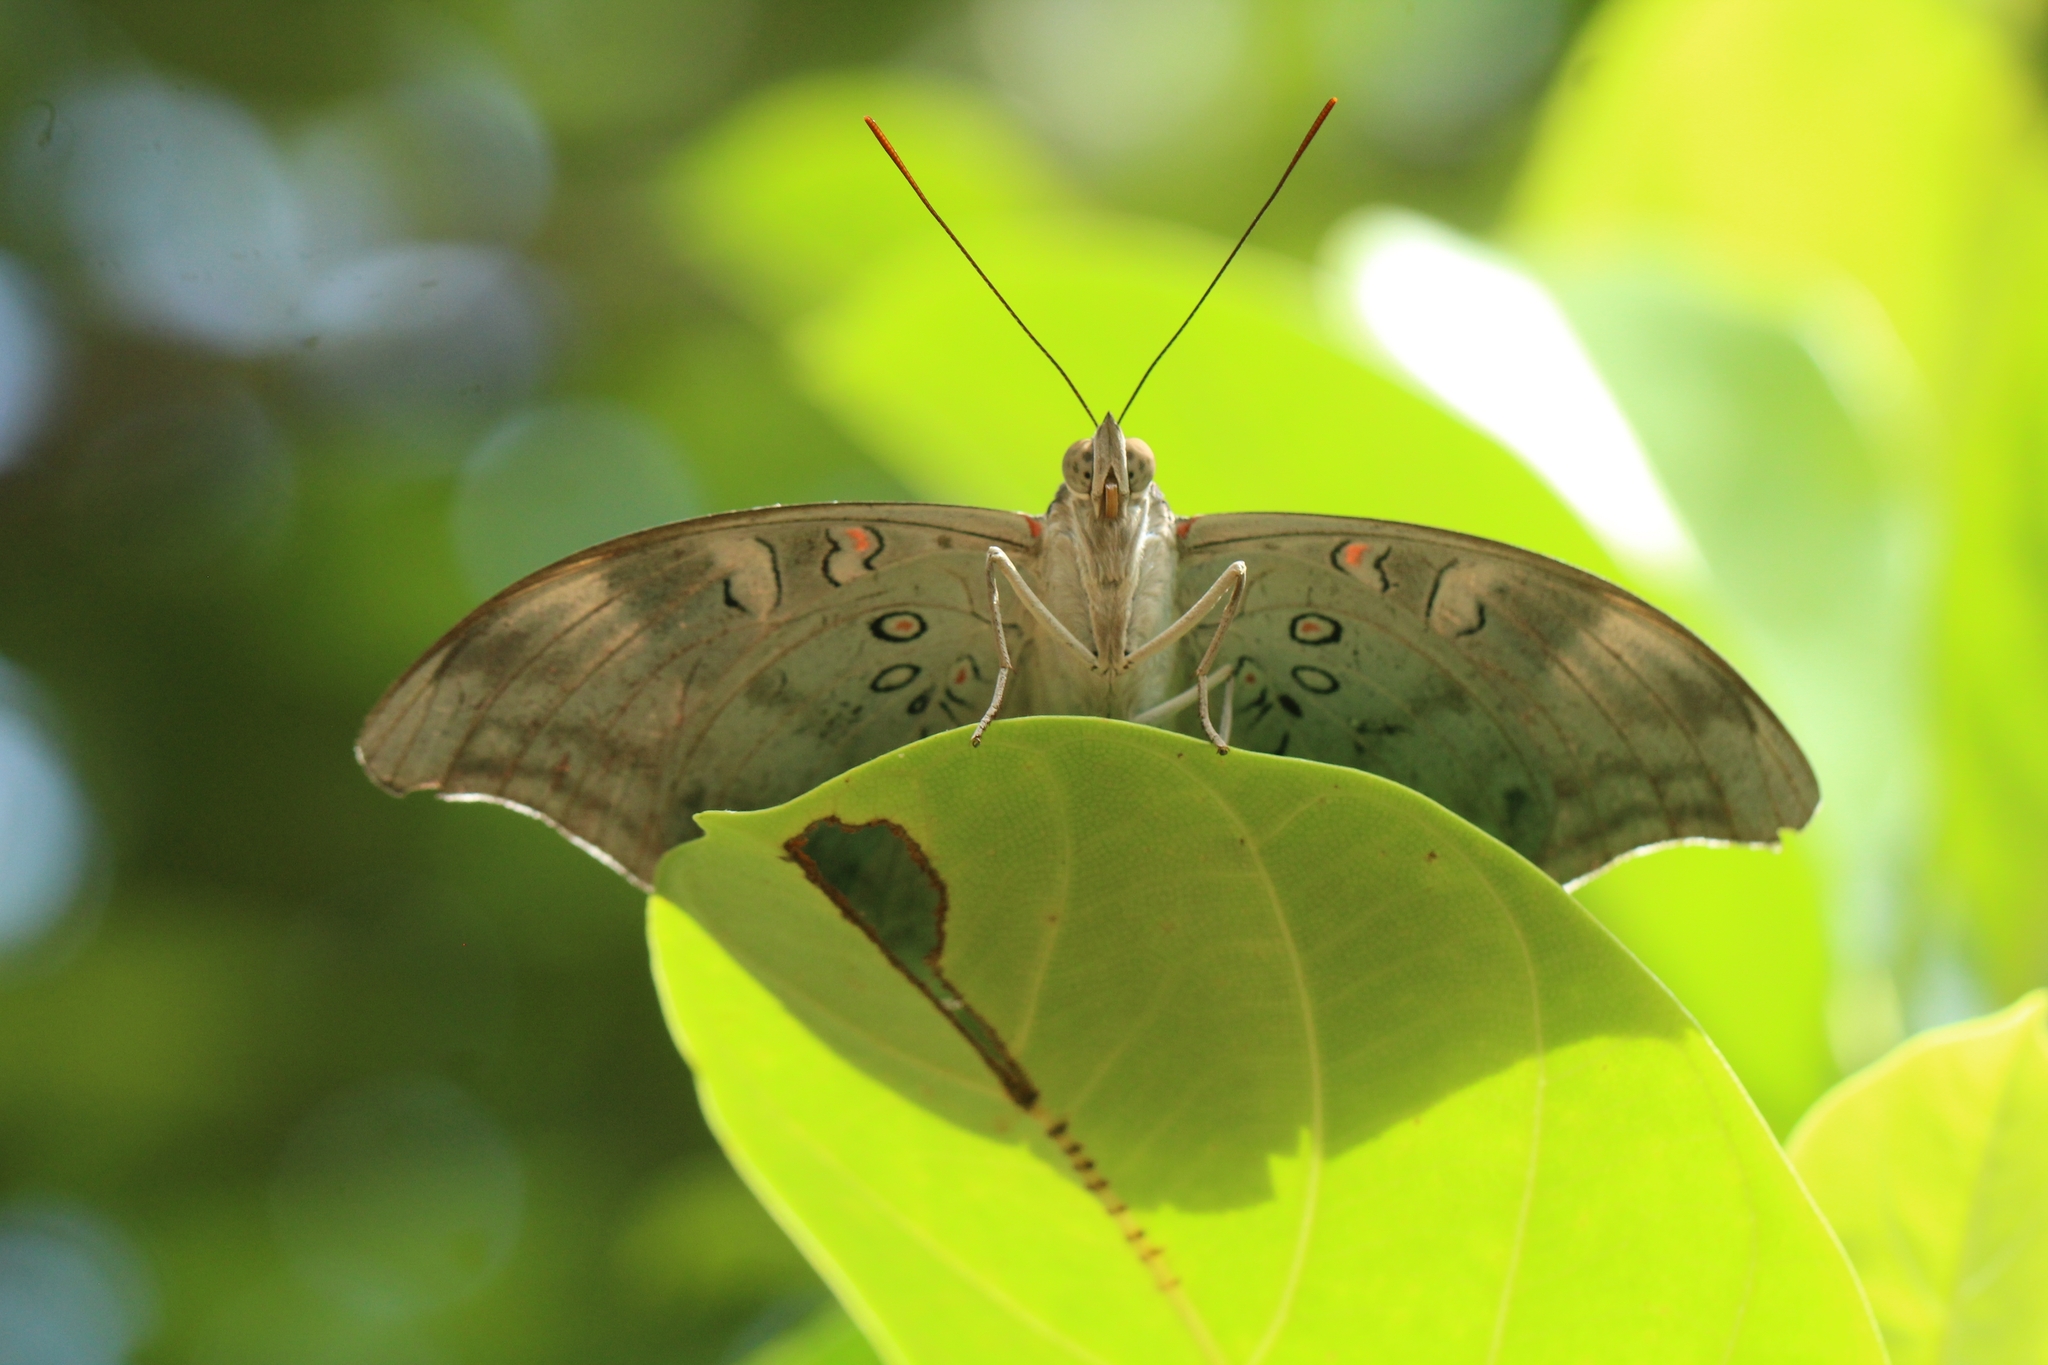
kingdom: Animalia
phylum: Arthropoda
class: Insecta
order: Lepidoptera
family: Nymphalidae
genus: Euthalia
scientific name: Euthalia Dophla evelina
